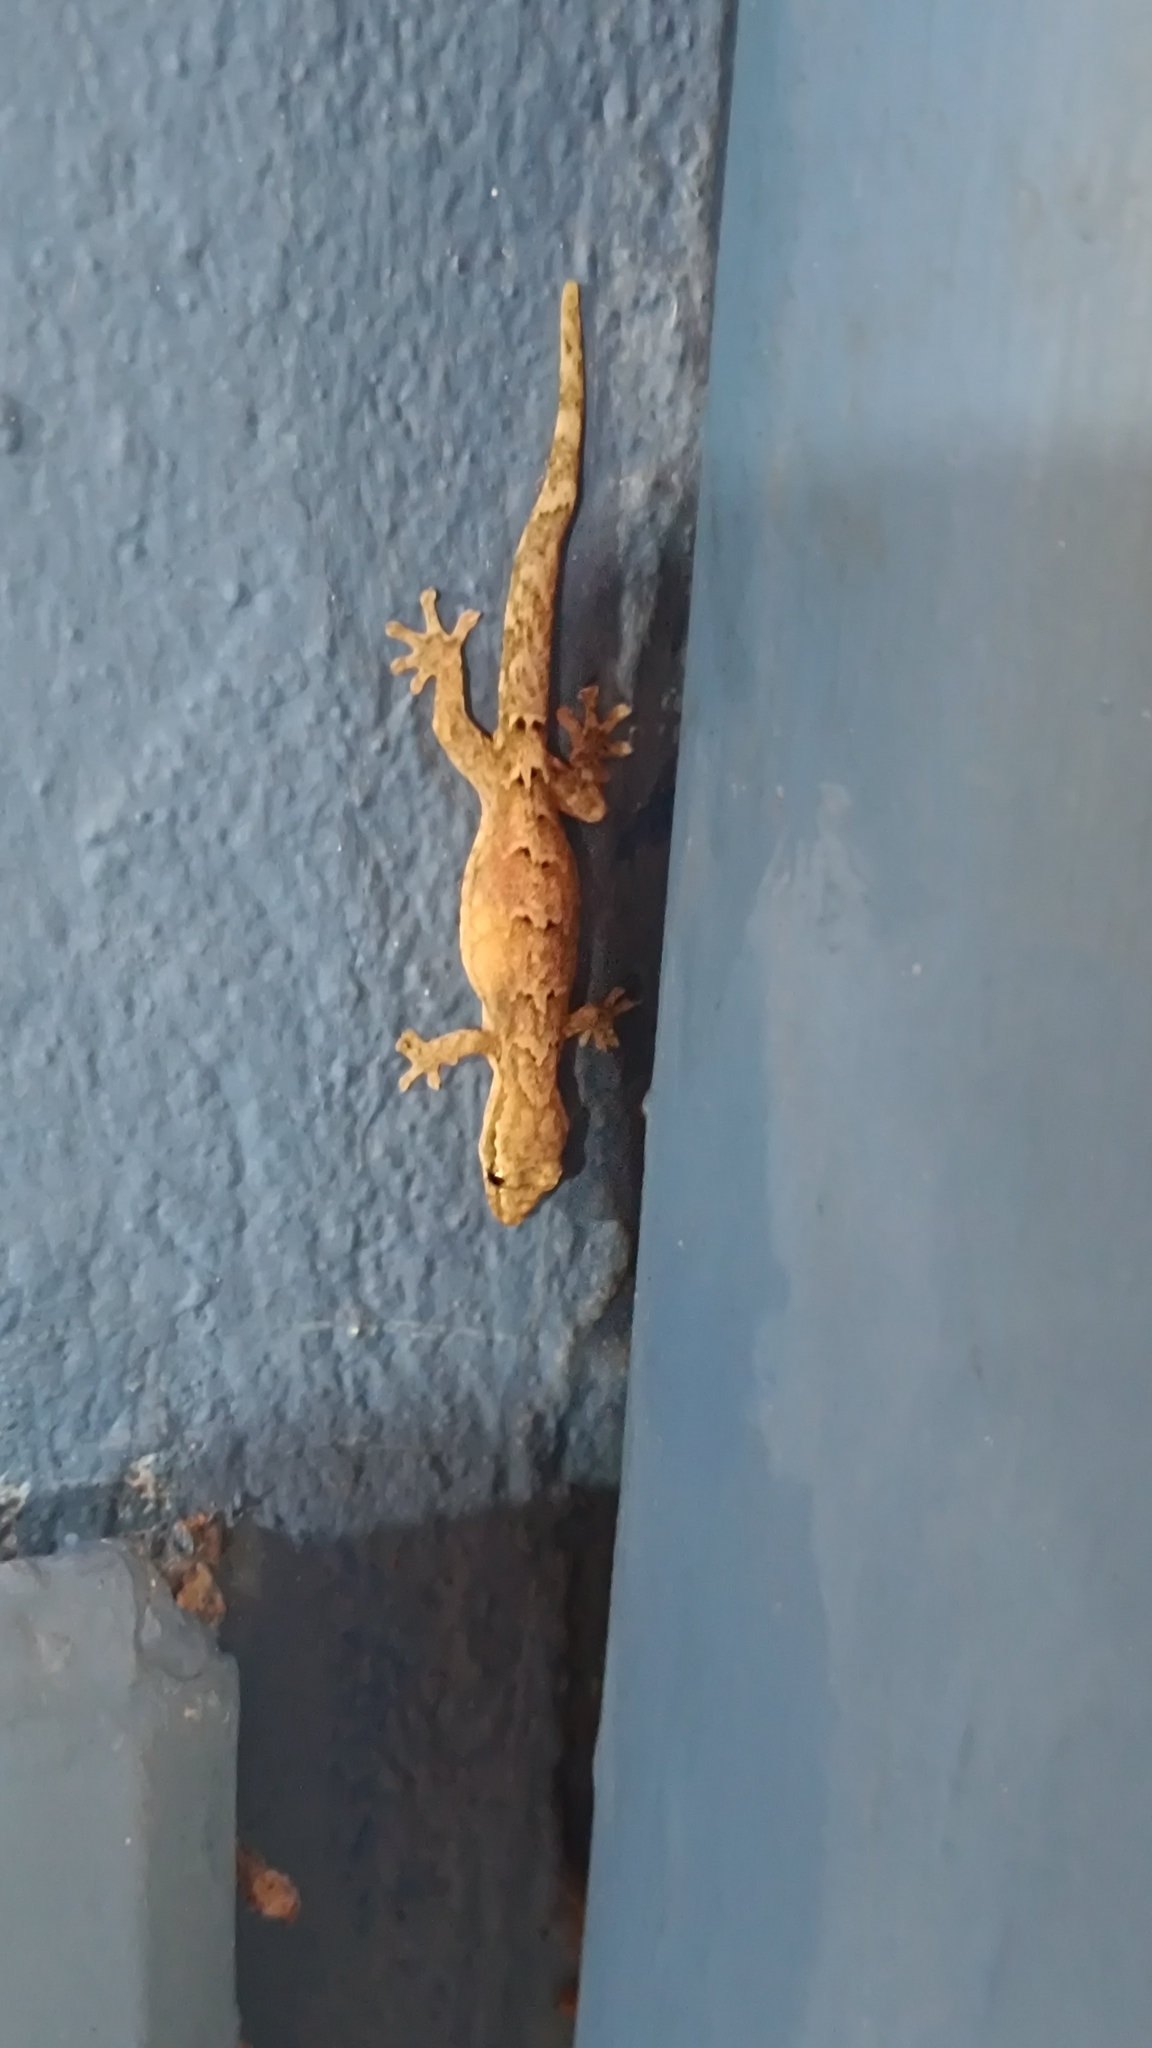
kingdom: Animalia
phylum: Chordata
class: Squamata
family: Gekkonidae
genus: Lepidodactylus
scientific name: Lepidodactylus lugubris
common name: Mourning gecko
